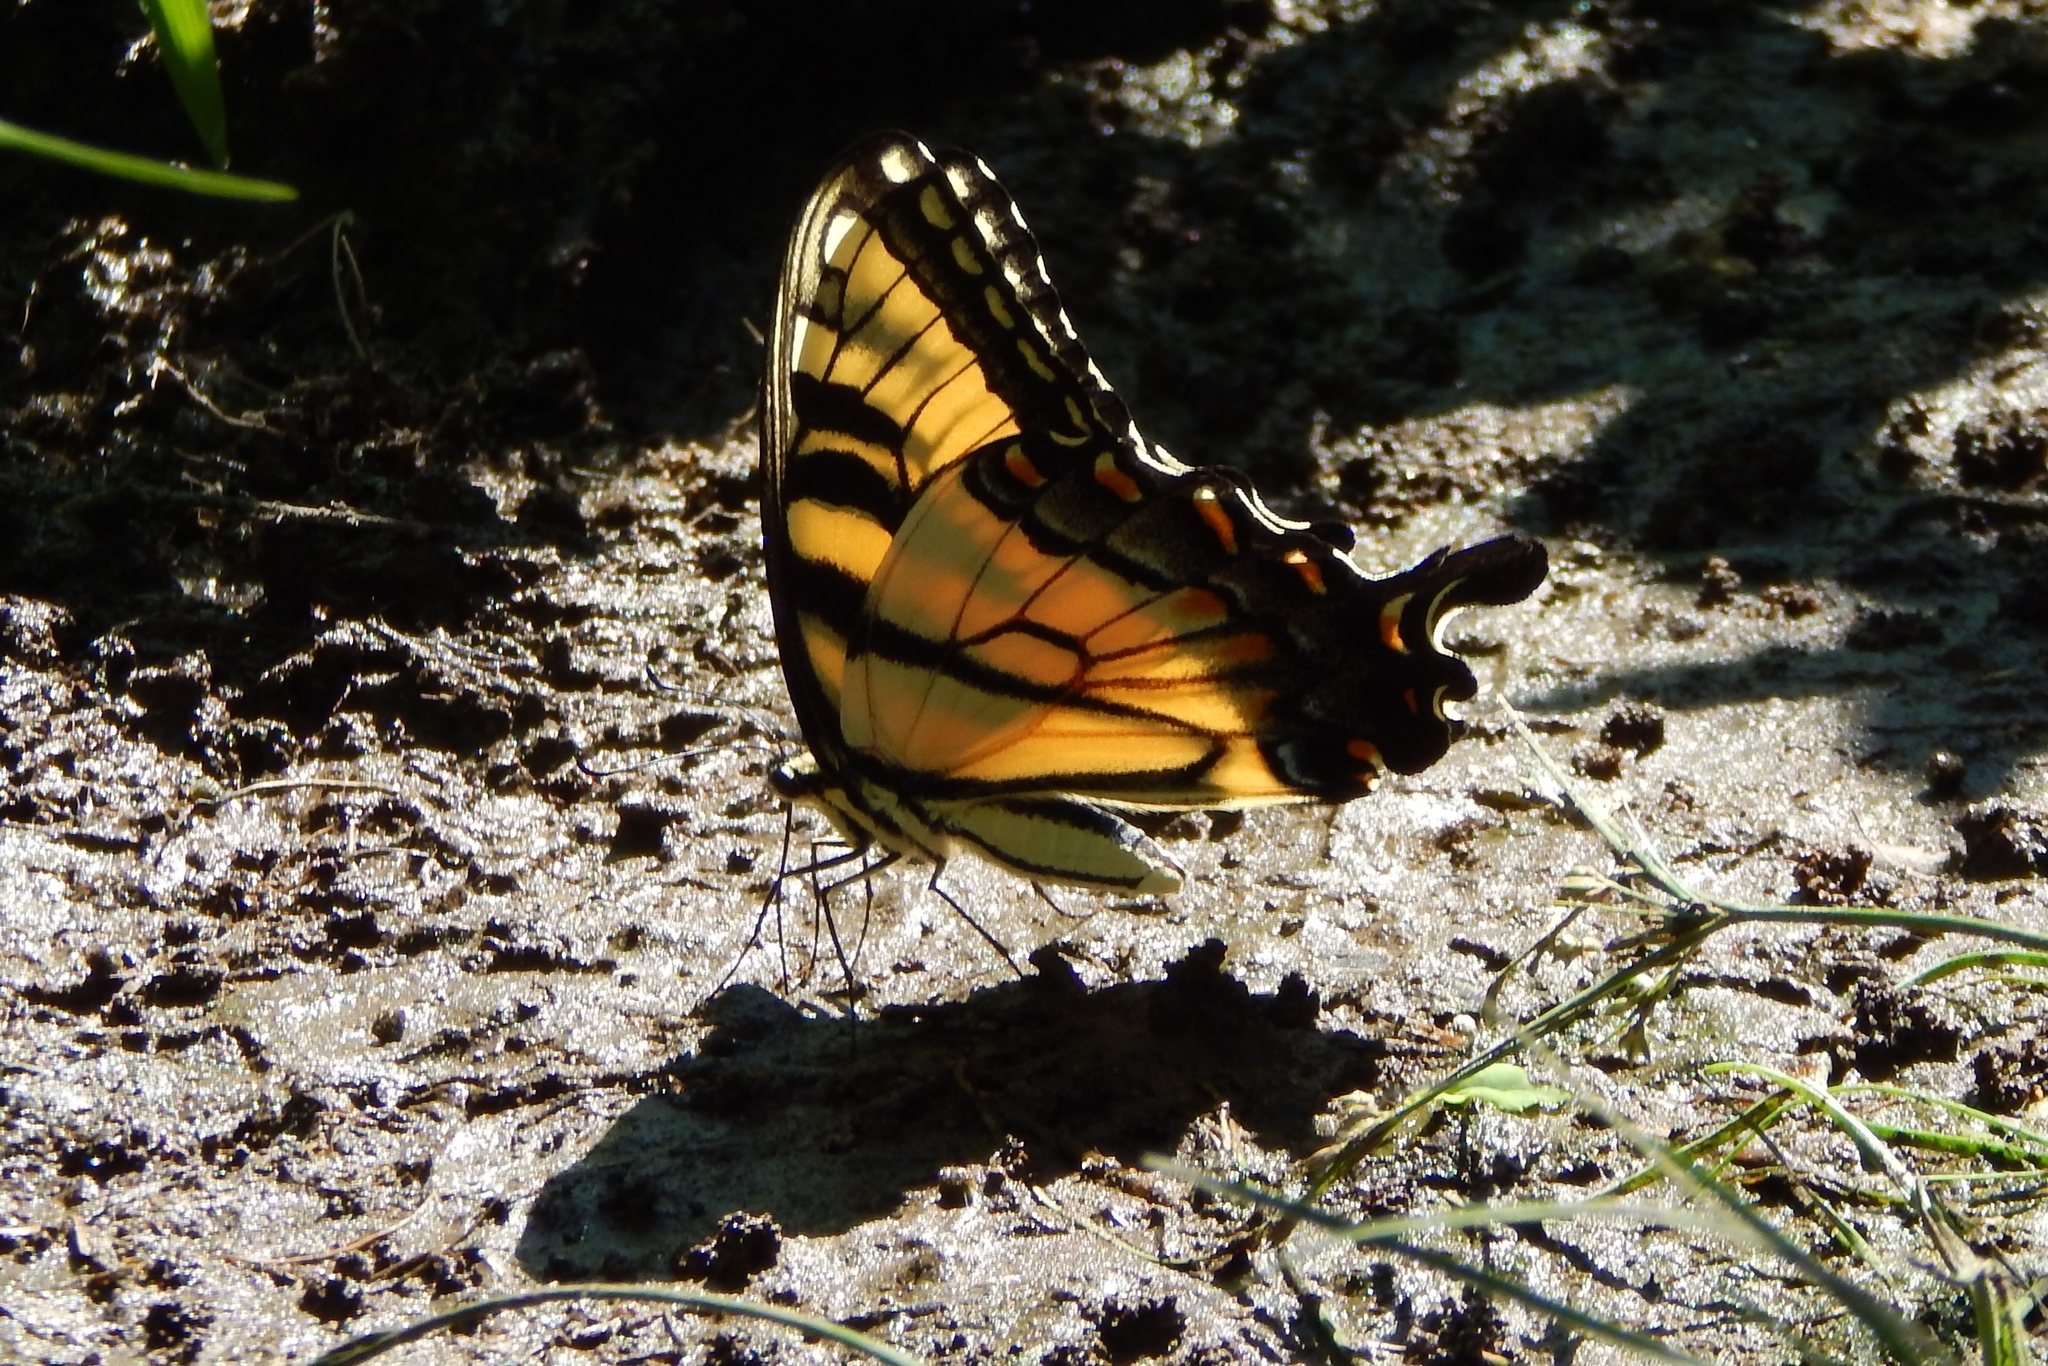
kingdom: Animalia
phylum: Arthropoda
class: Insecta
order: Lepidoptera
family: Papilionidae
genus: Papilio
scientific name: Papilio glaucus
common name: Tiger swallowtail
